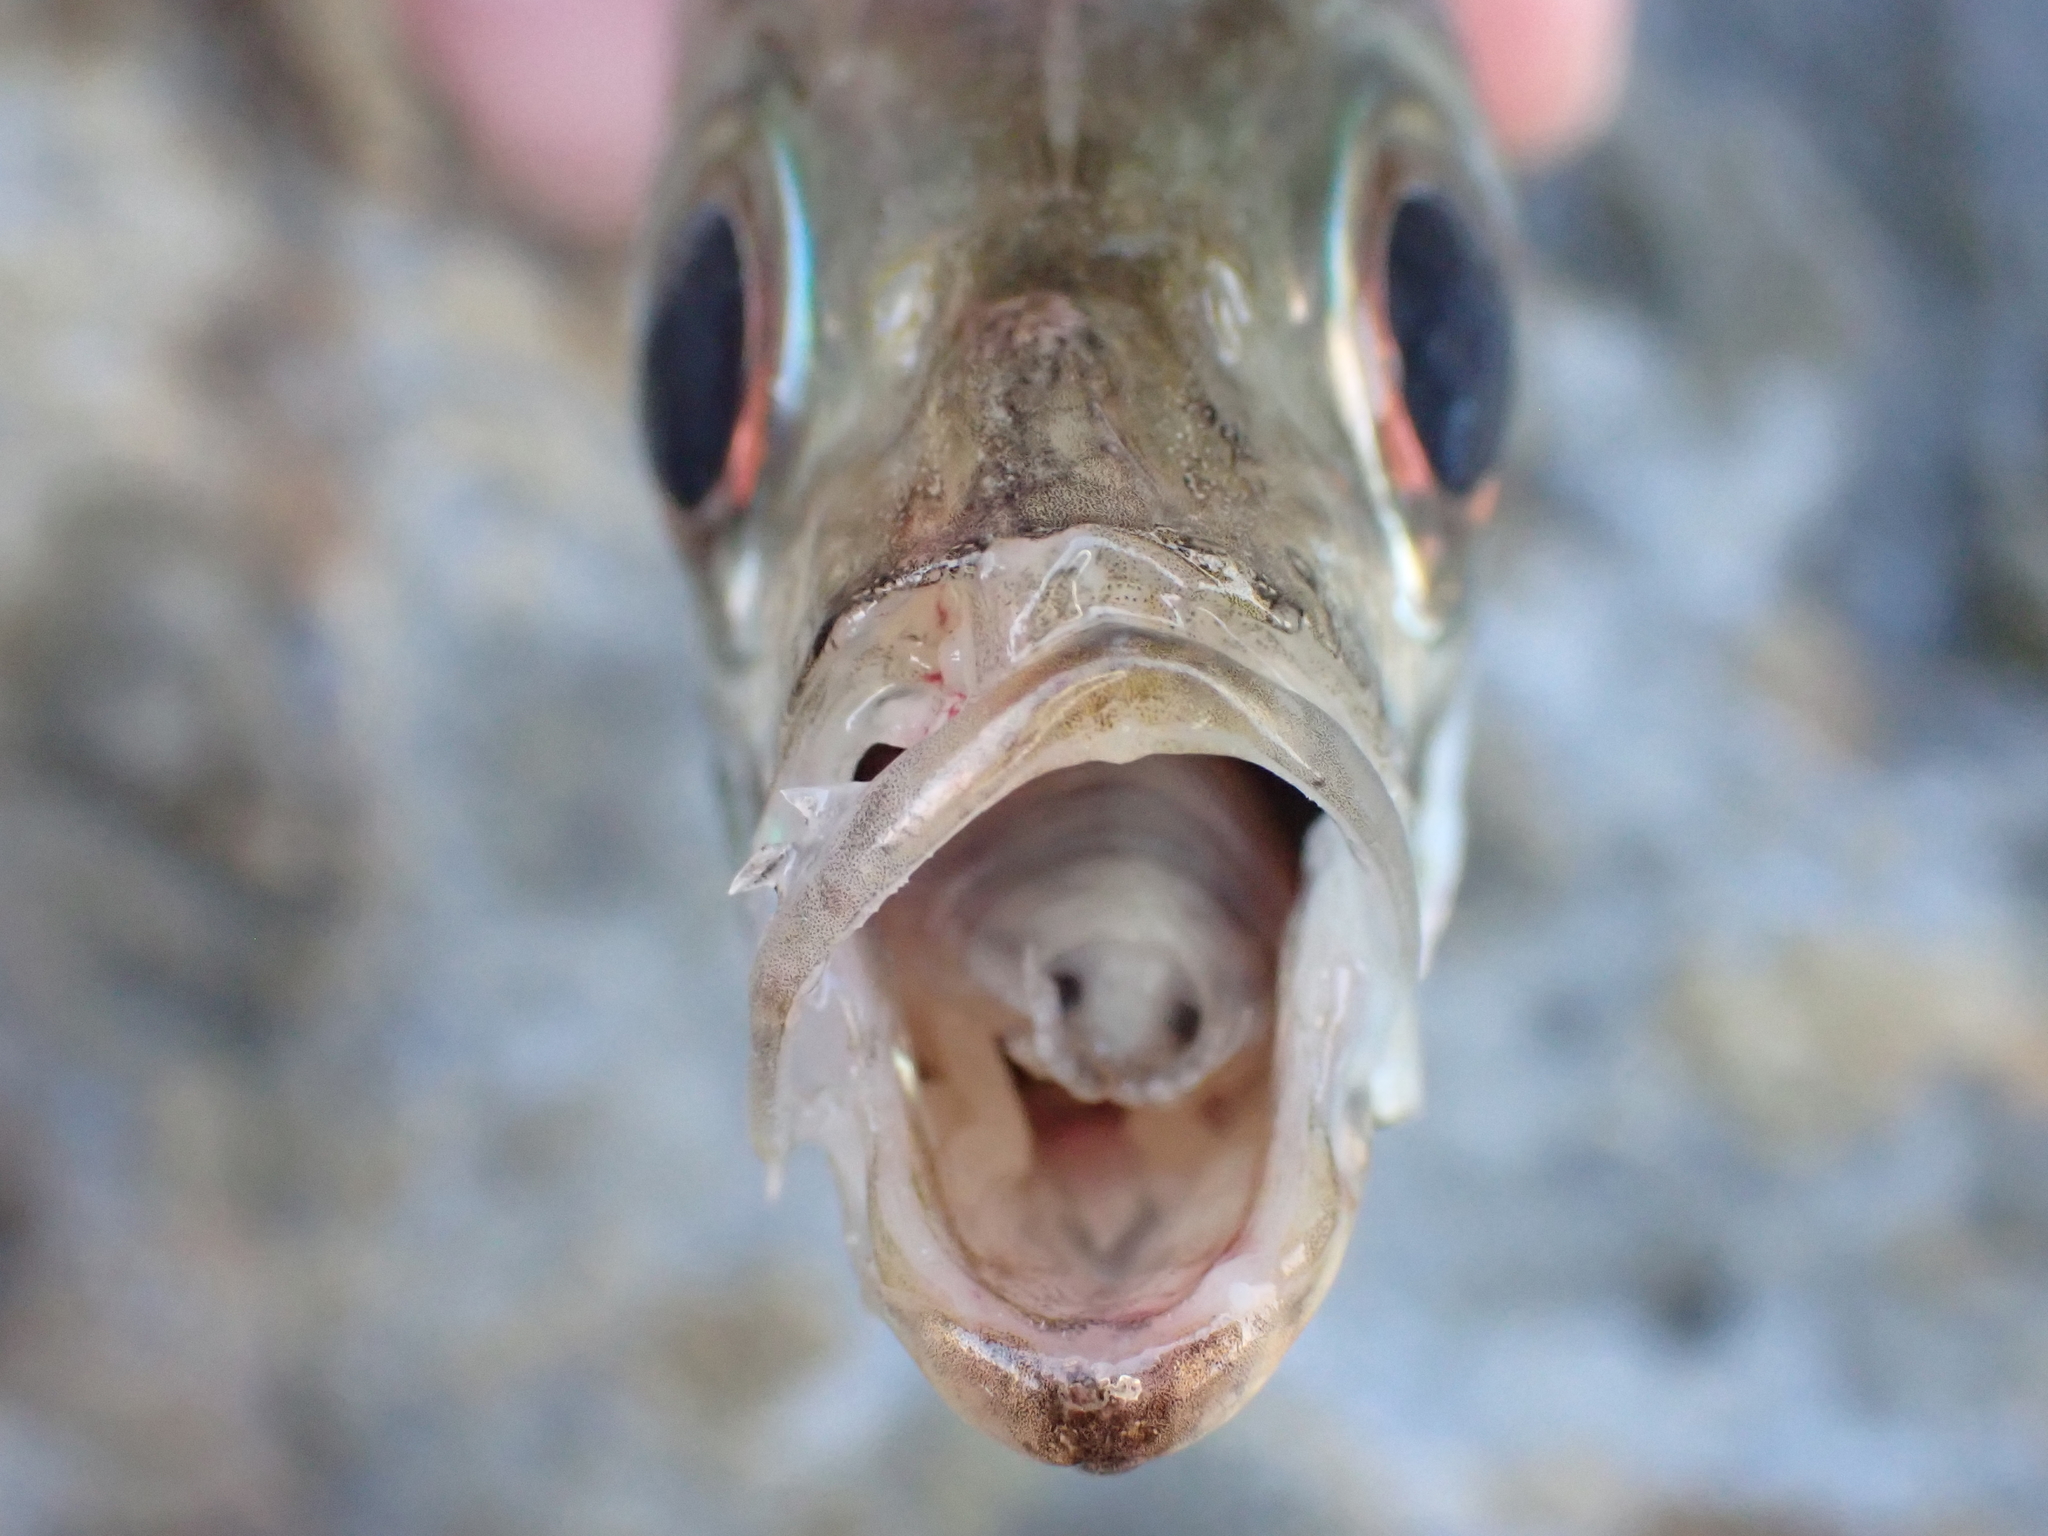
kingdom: Animalia
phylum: Chordata
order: Perciformes
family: Carangidae
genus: Trachurus
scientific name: Trachurus novaezelandiae
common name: Yellowtail horse mackerel
